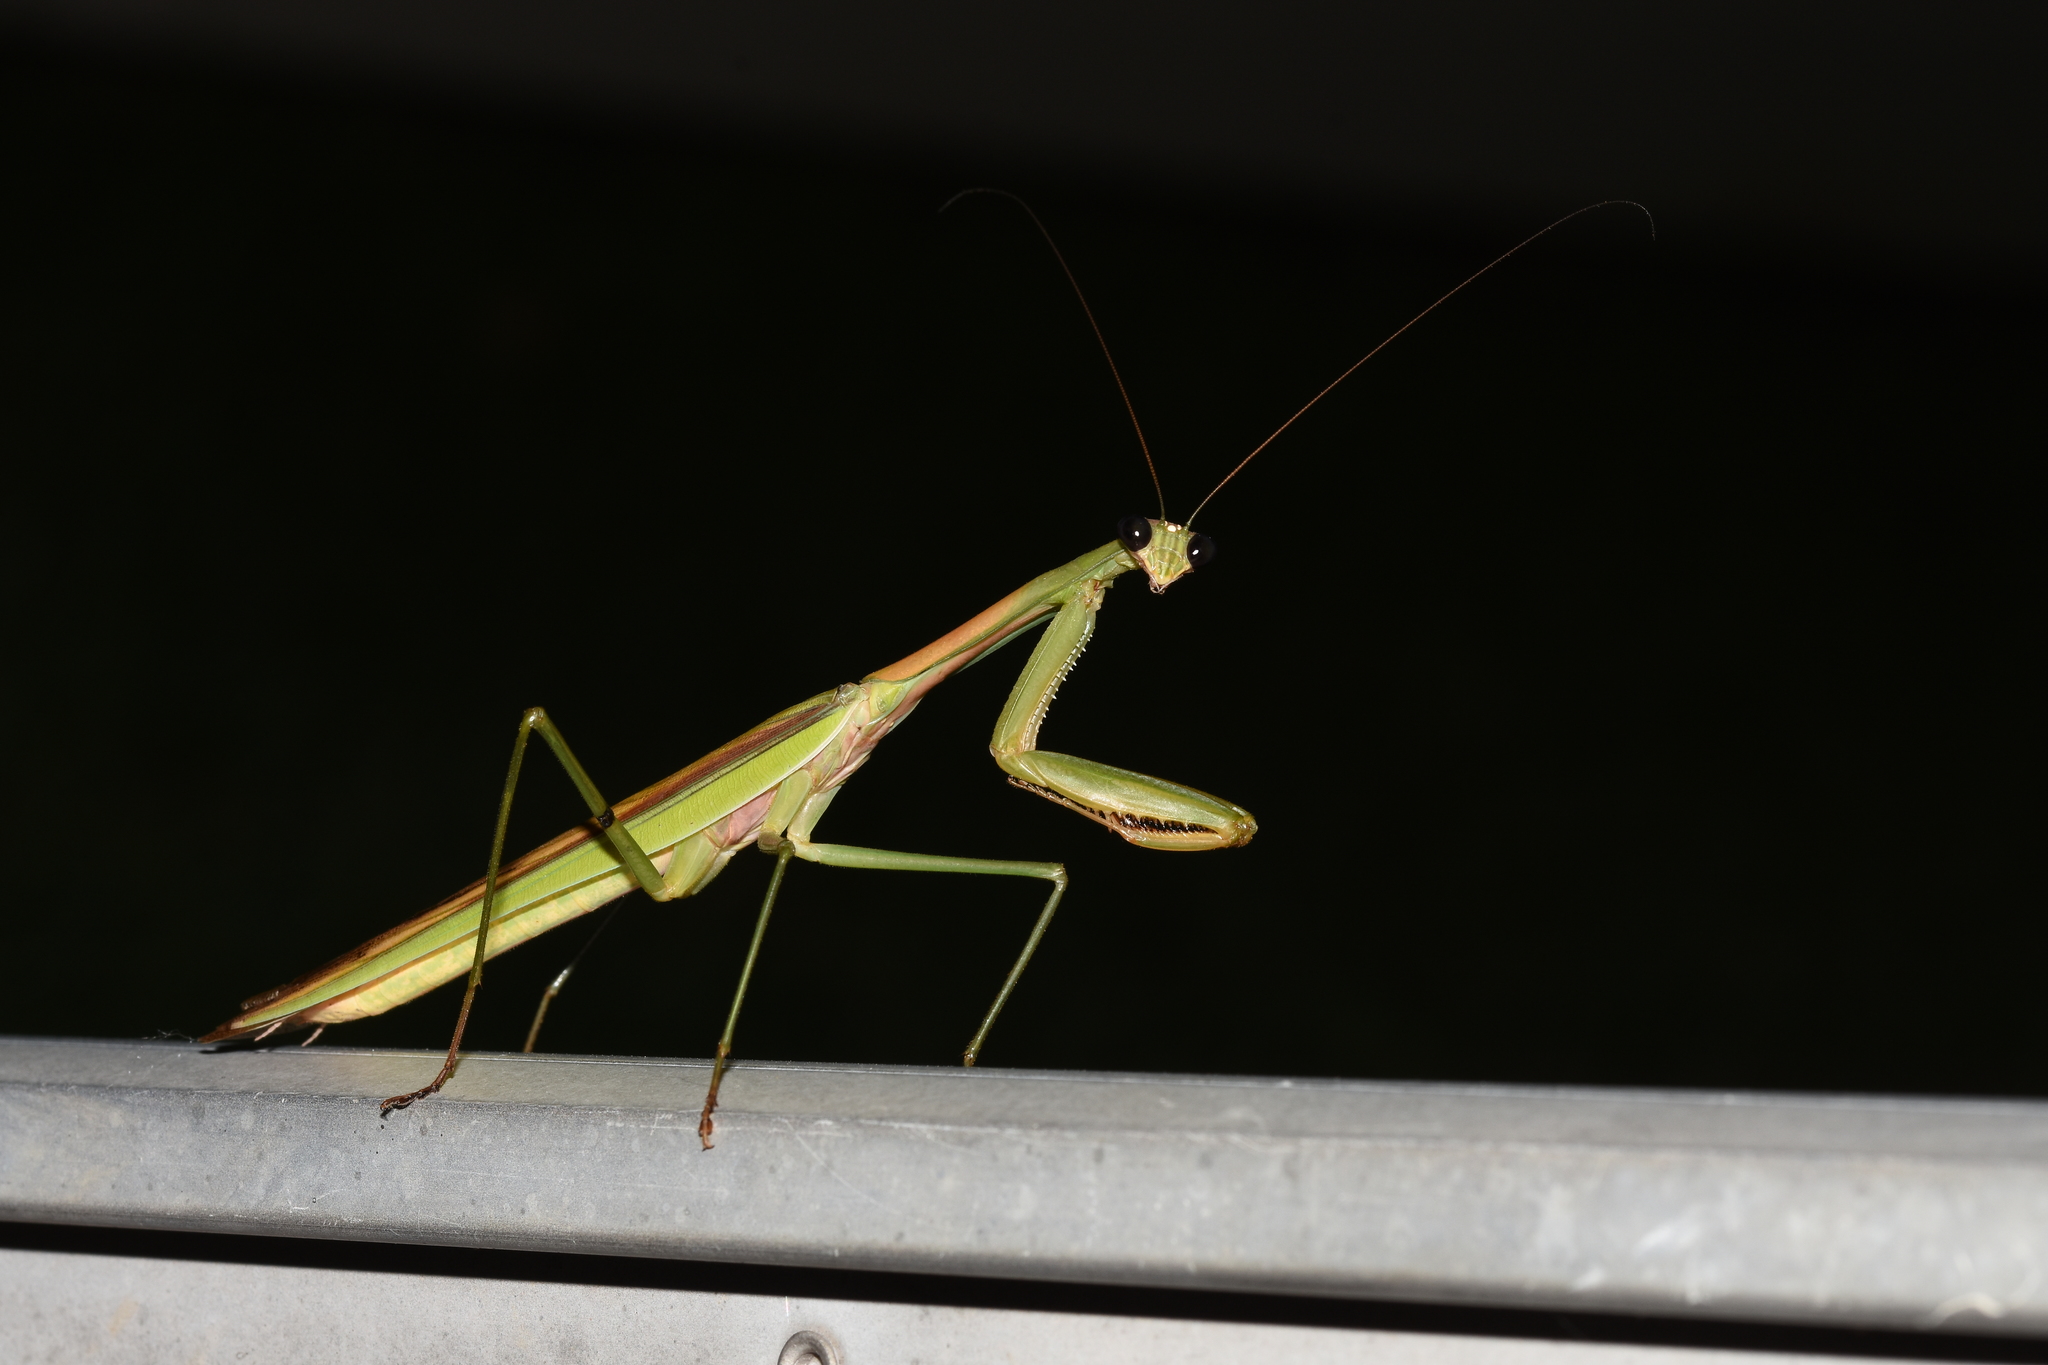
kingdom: Animalia
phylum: Arthropoda
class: Insecta
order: Mantodea
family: Mantidae
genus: Tenodera
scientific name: Tenodera sinensis
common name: Chinese mantis
